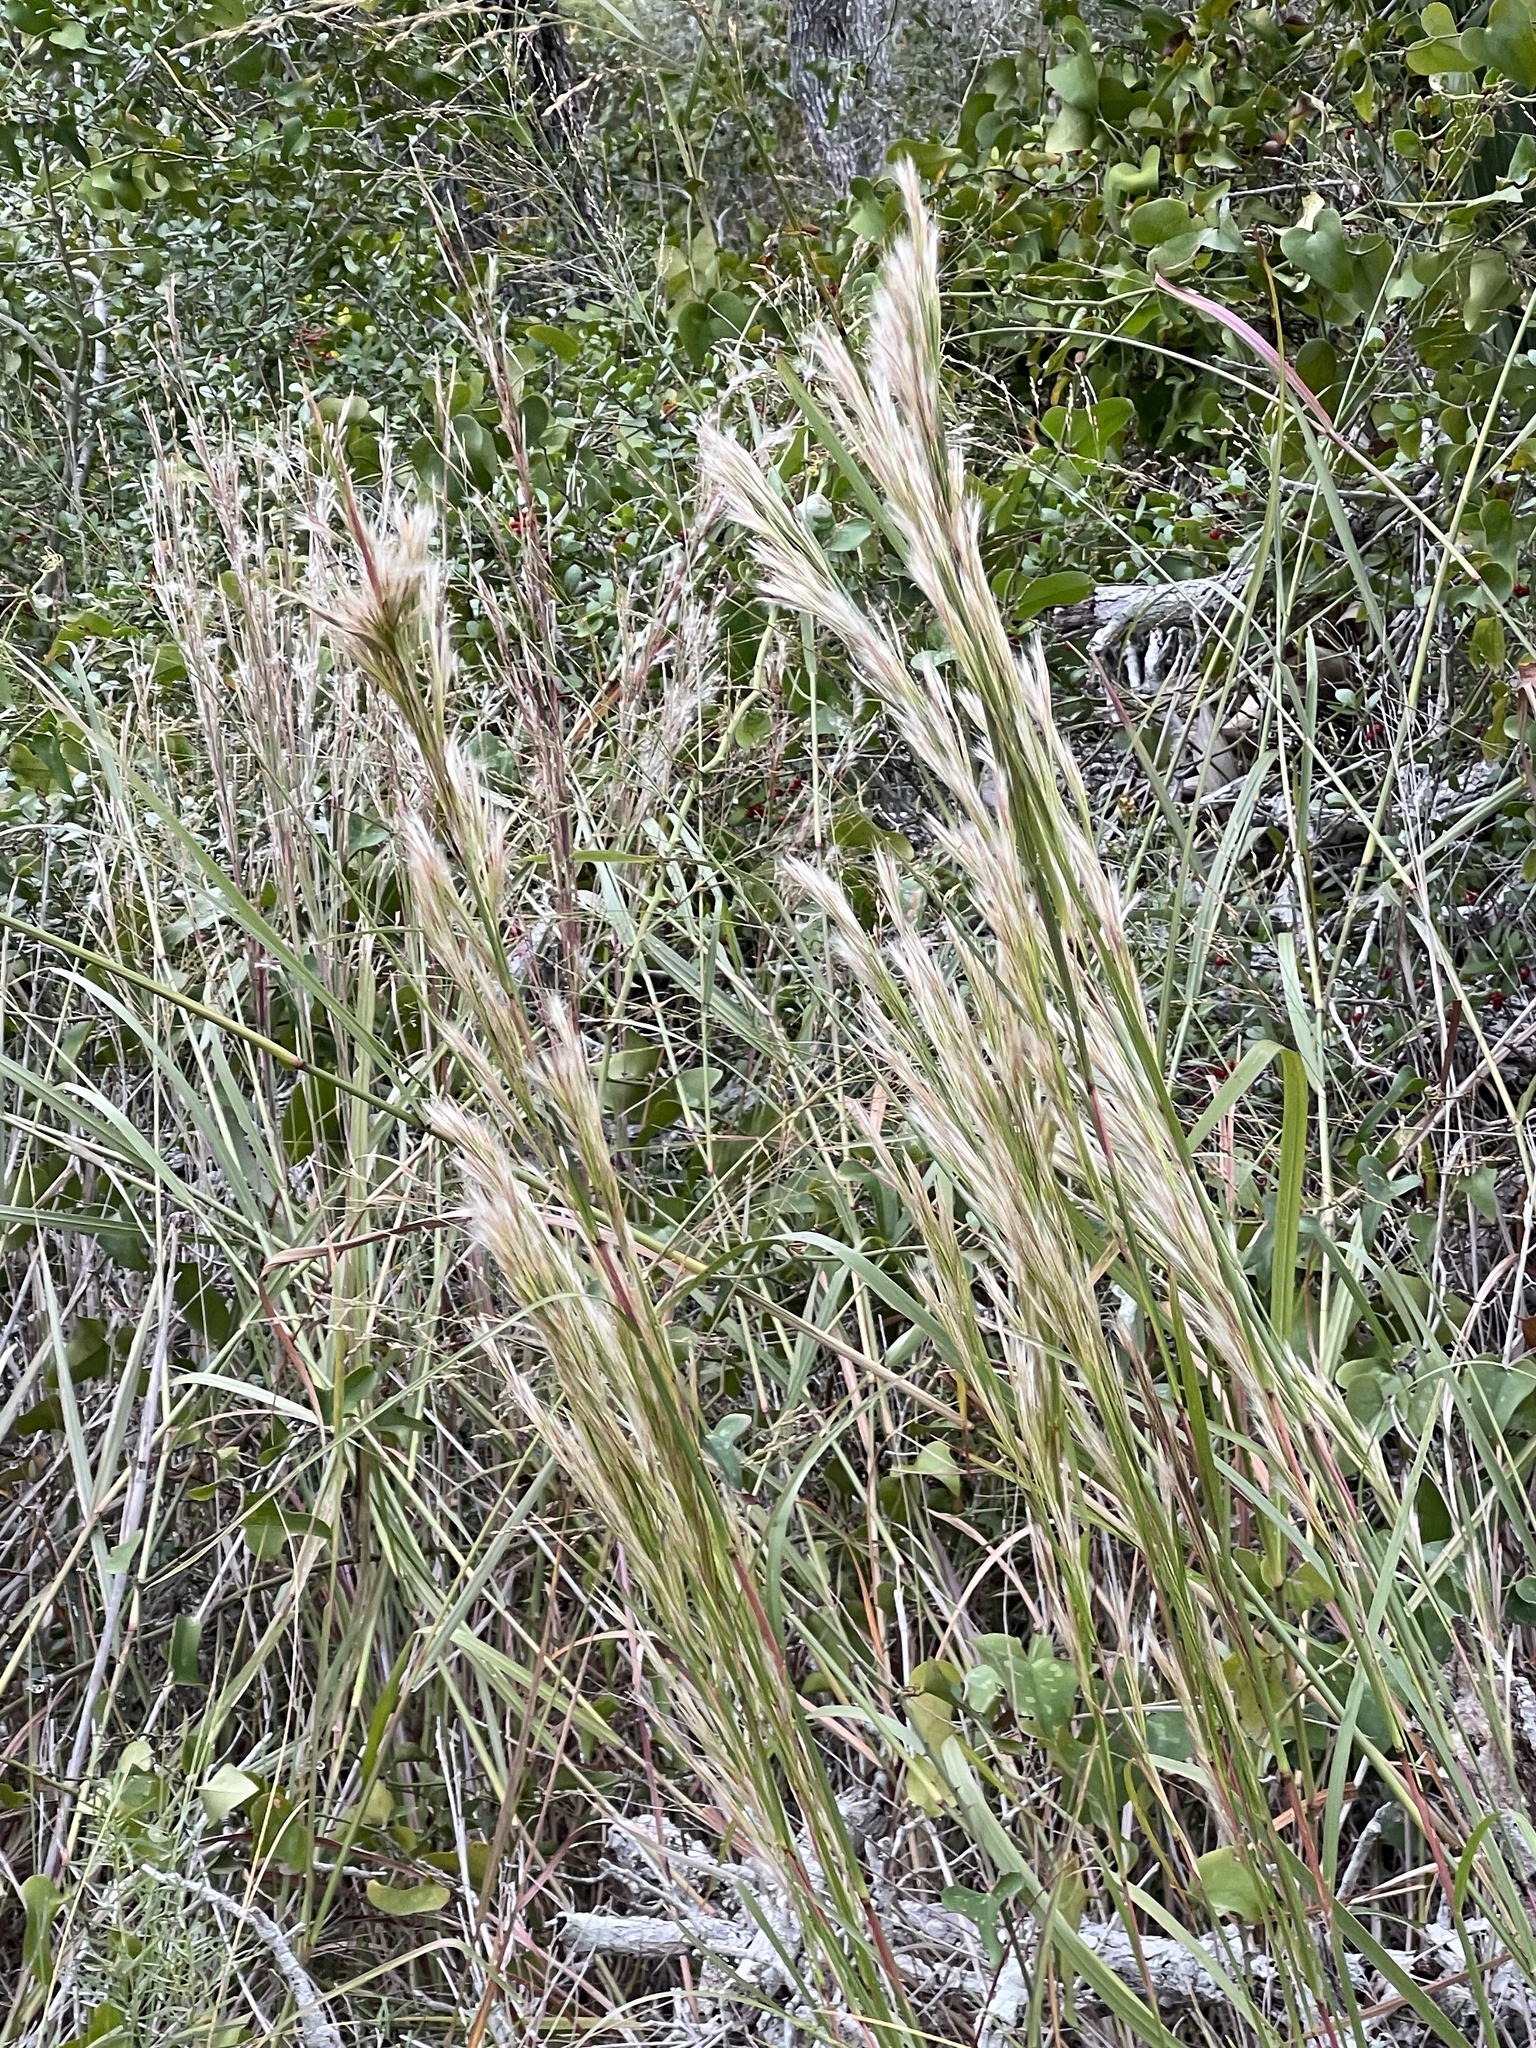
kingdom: Plantae
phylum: Tracheophyta
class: Liliopsida
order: Poales
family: Poaceae
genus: Andropogon
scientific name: Andropogon tenuispatheus
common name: Bushy bluestem
